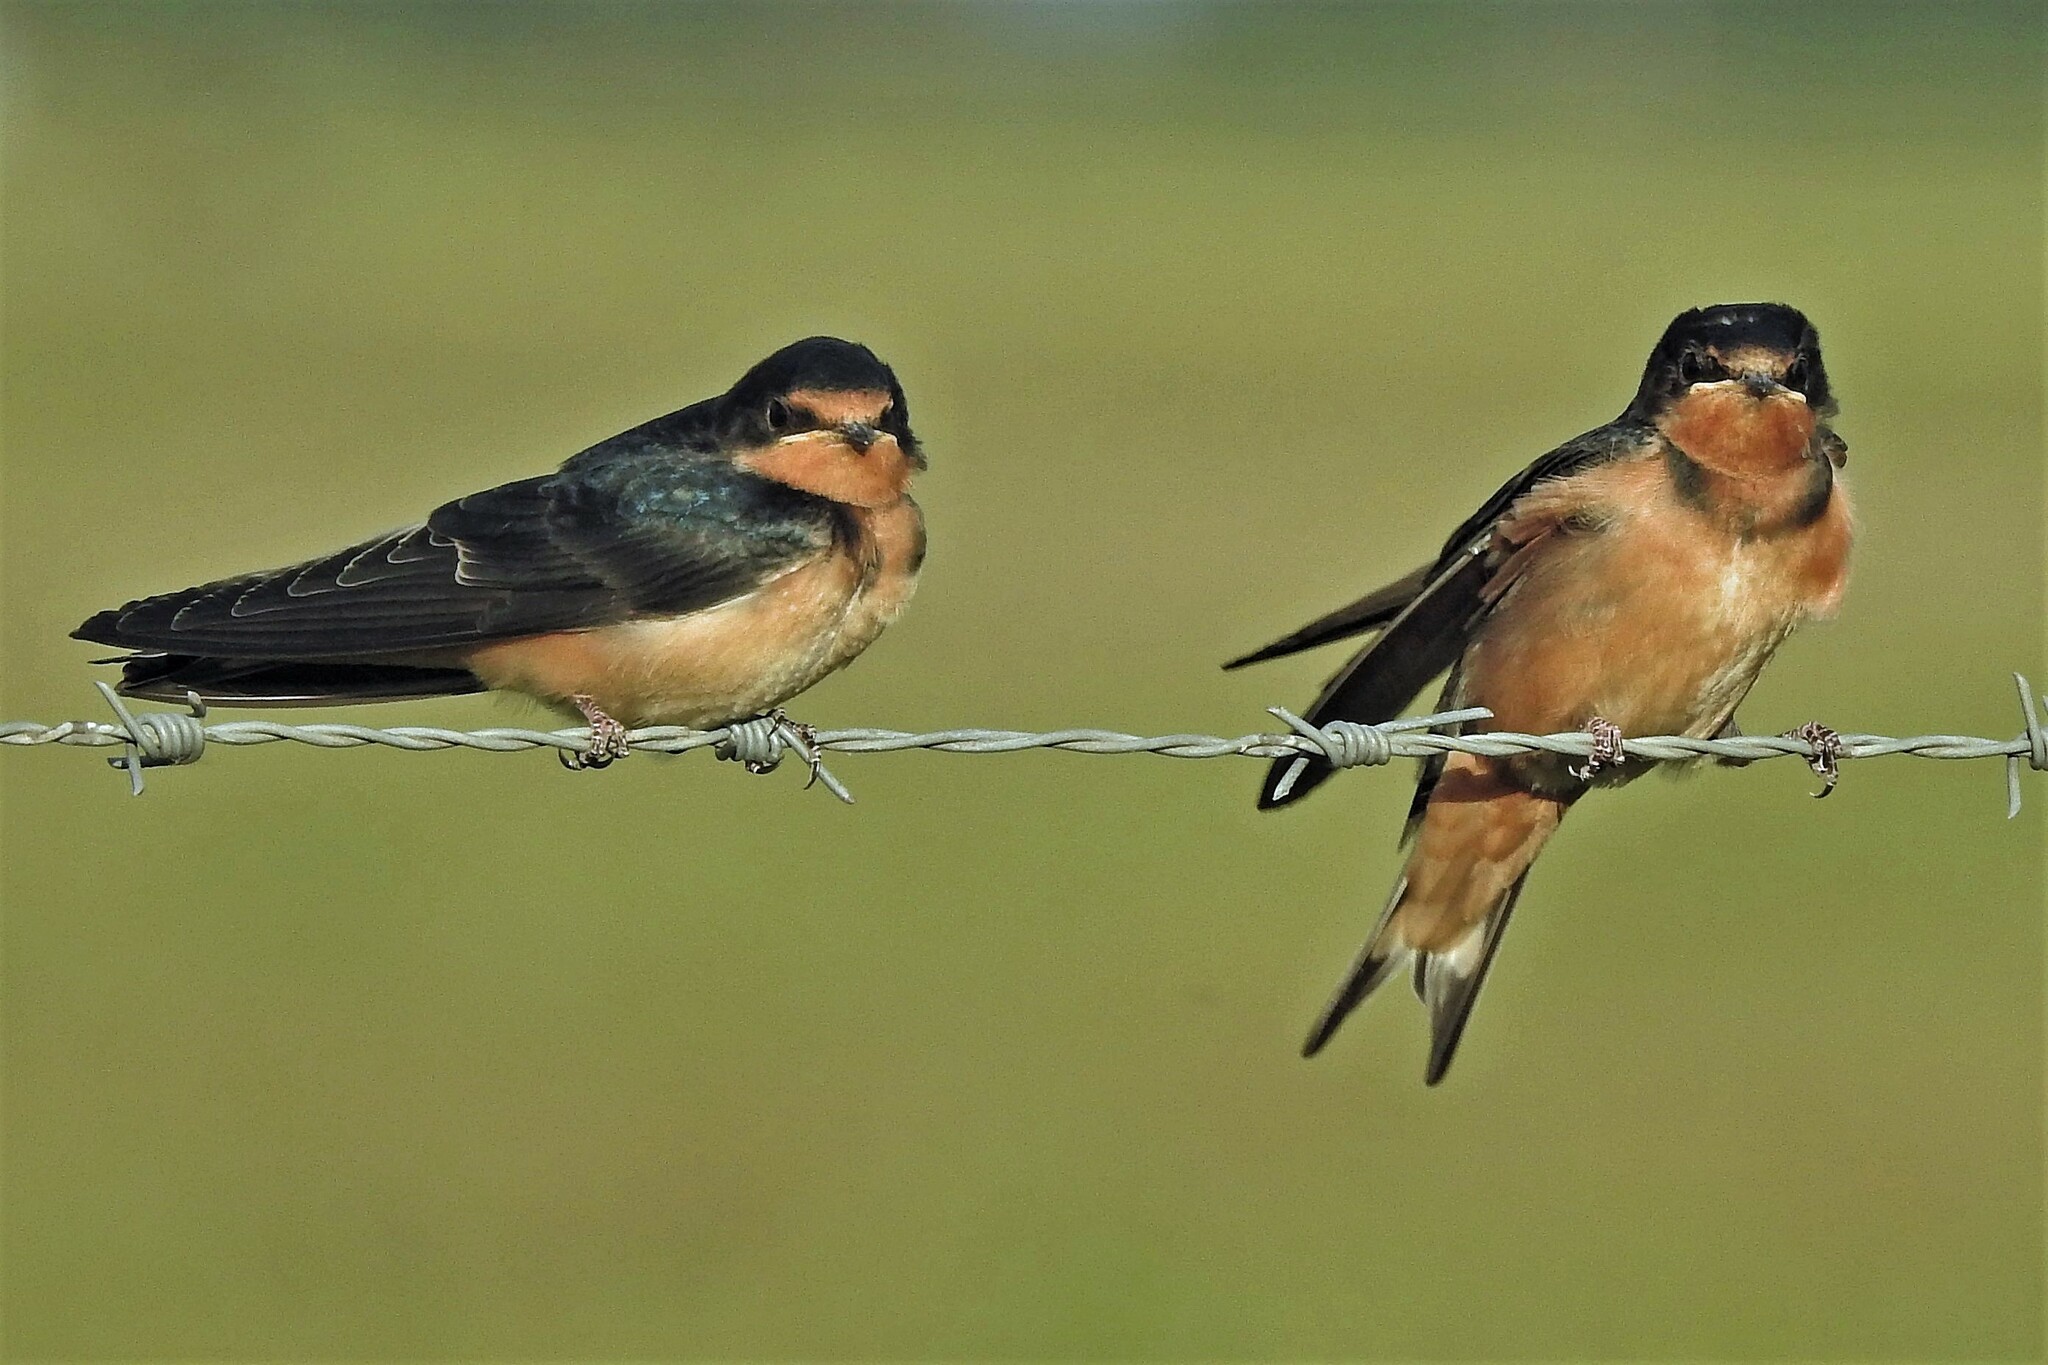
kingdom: Animalia
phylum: Chordata
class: Aves
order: Passeriformes
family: Hirundinidae
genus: Hirundo
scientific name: Hirundo rustica
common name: Barn swallow
